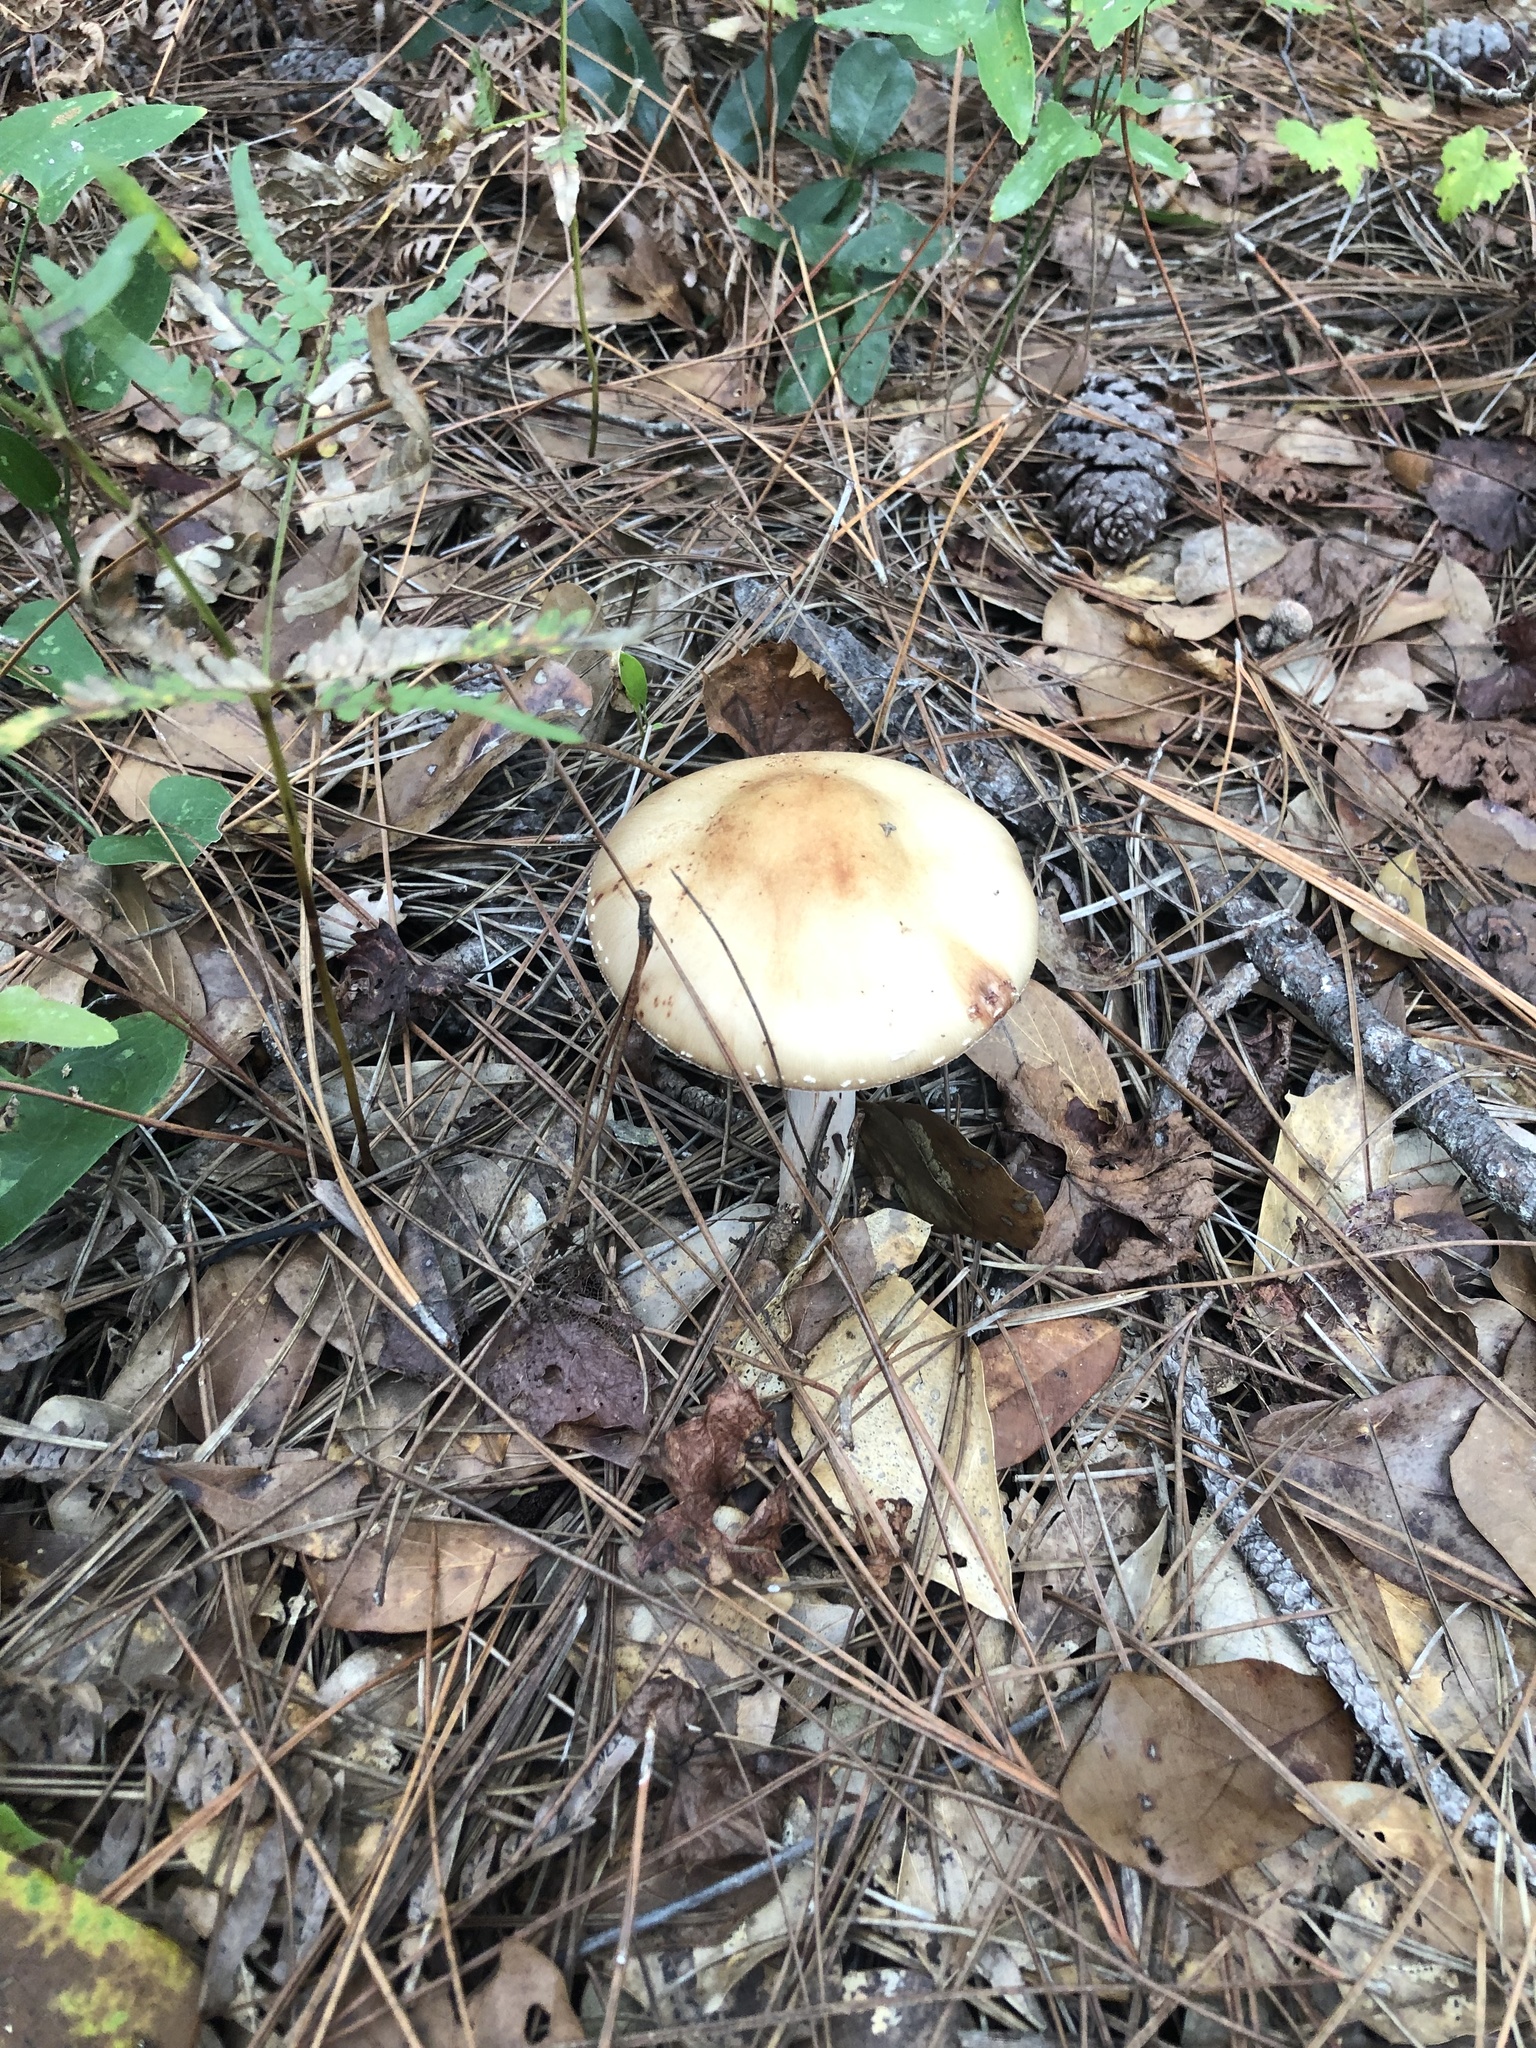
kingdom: Fungi
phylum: Basidiomycota
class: Agaricomycetes
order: Agaricales
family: Amanitaceae
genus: Amanita
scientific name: Amanita
